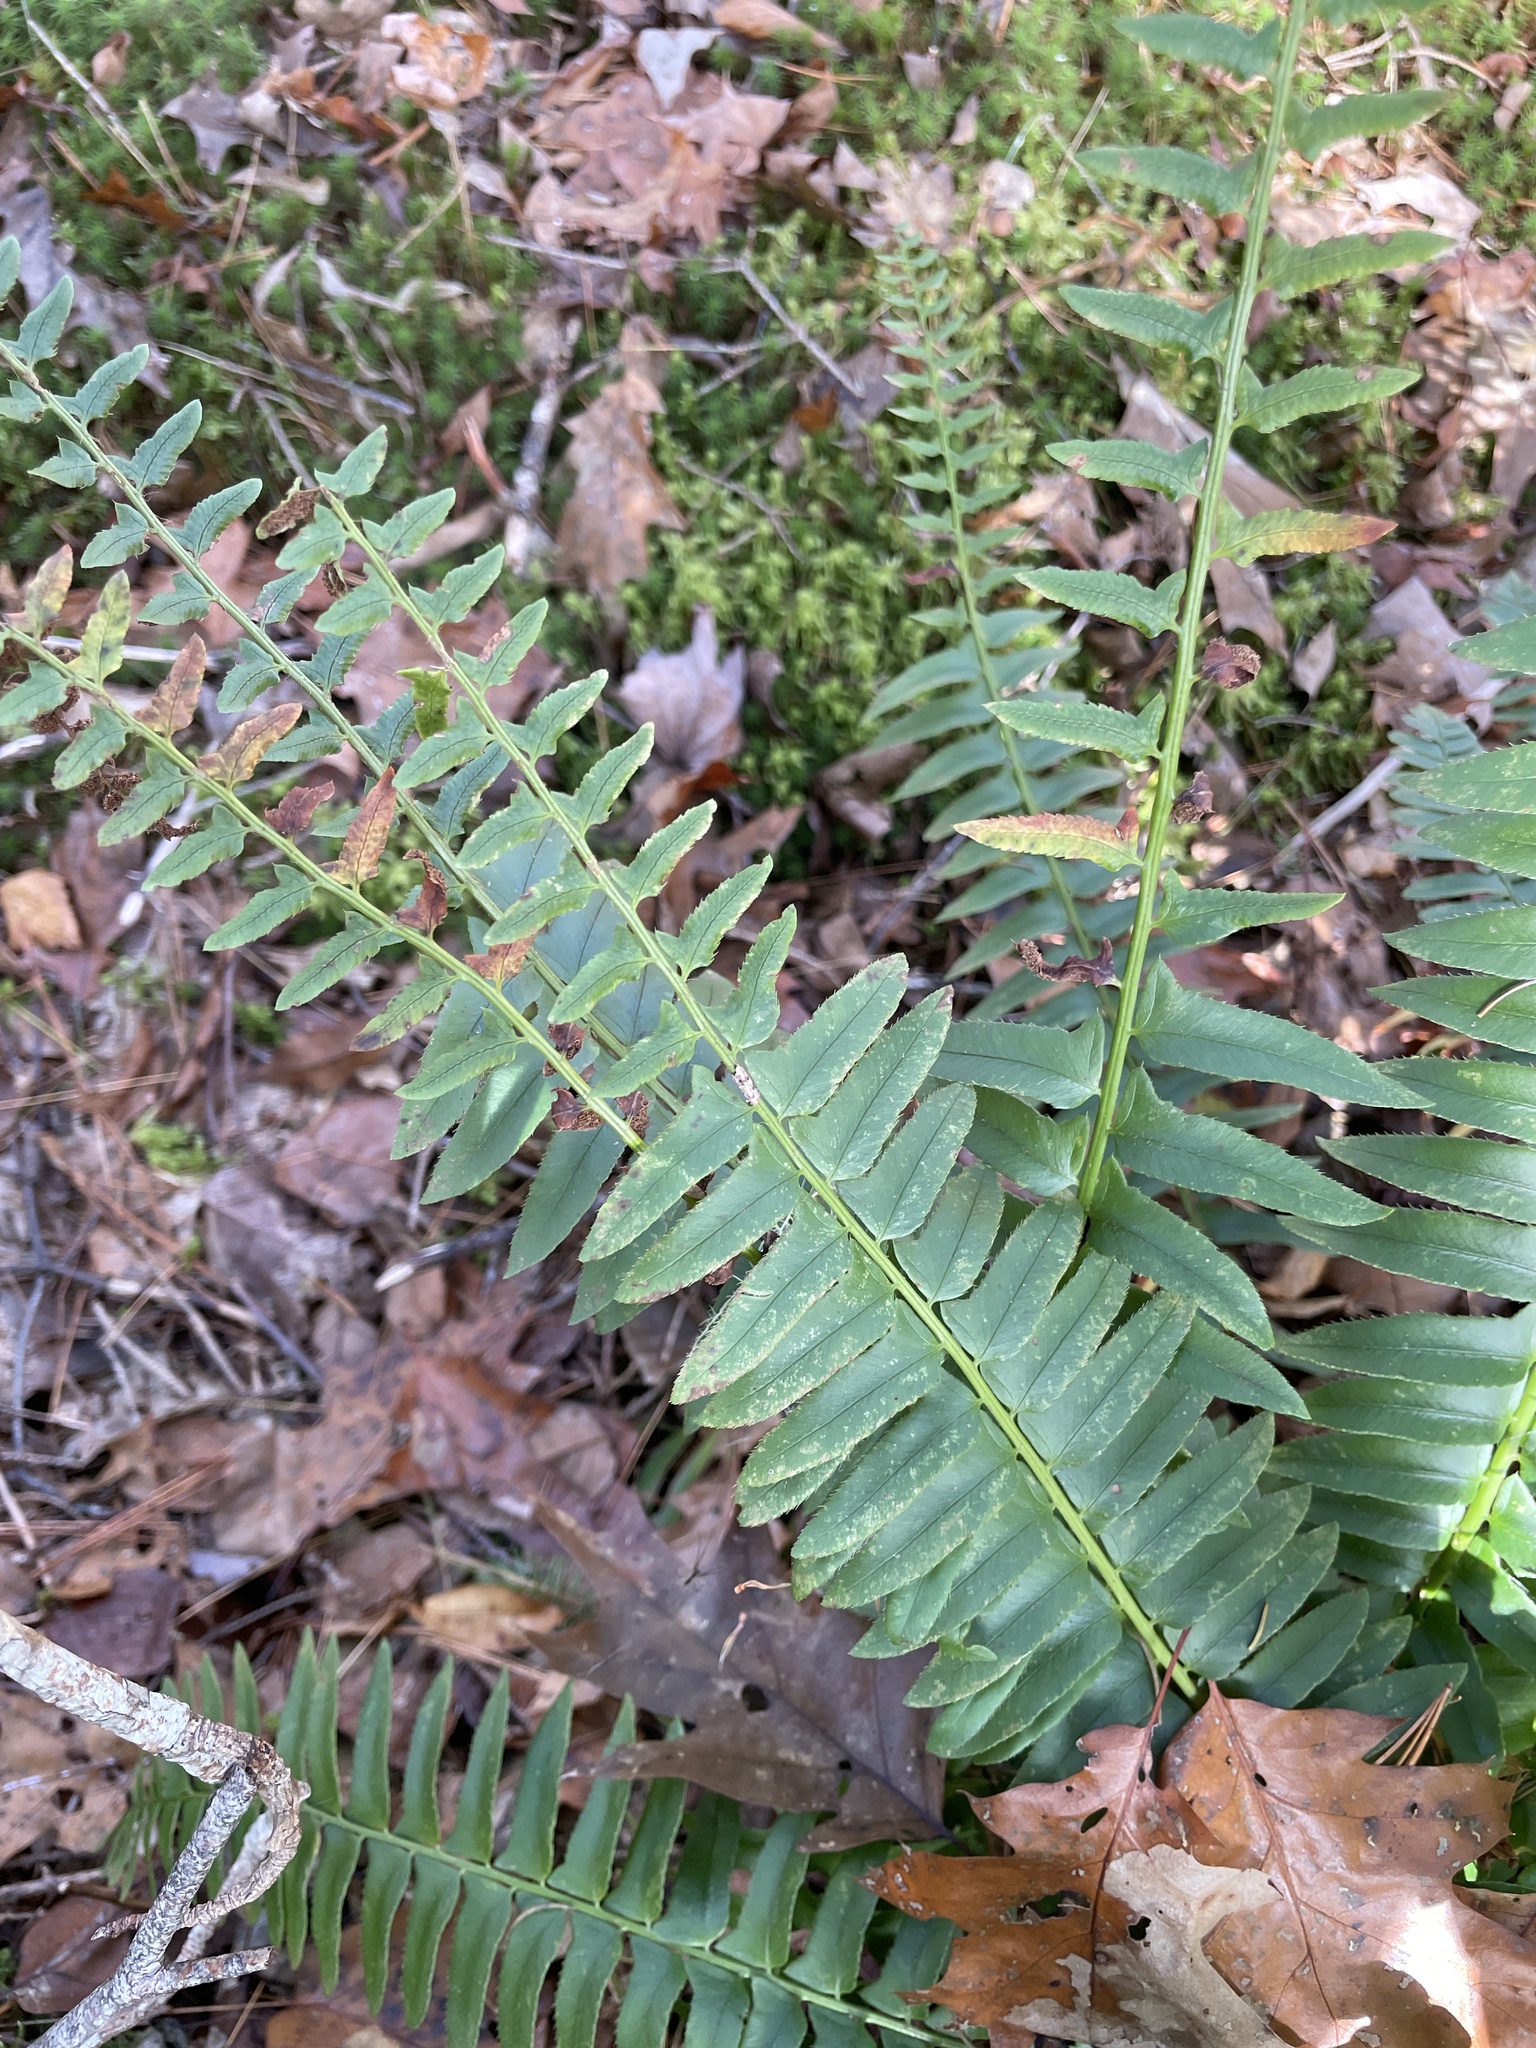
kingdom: Plantae
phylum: Tracheophyta
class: Polypodiopsida
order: Polypodiales
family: Dryopteridaceae
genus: Polystichum
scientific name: Polystichum acrostichoides
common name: Christmas fern
